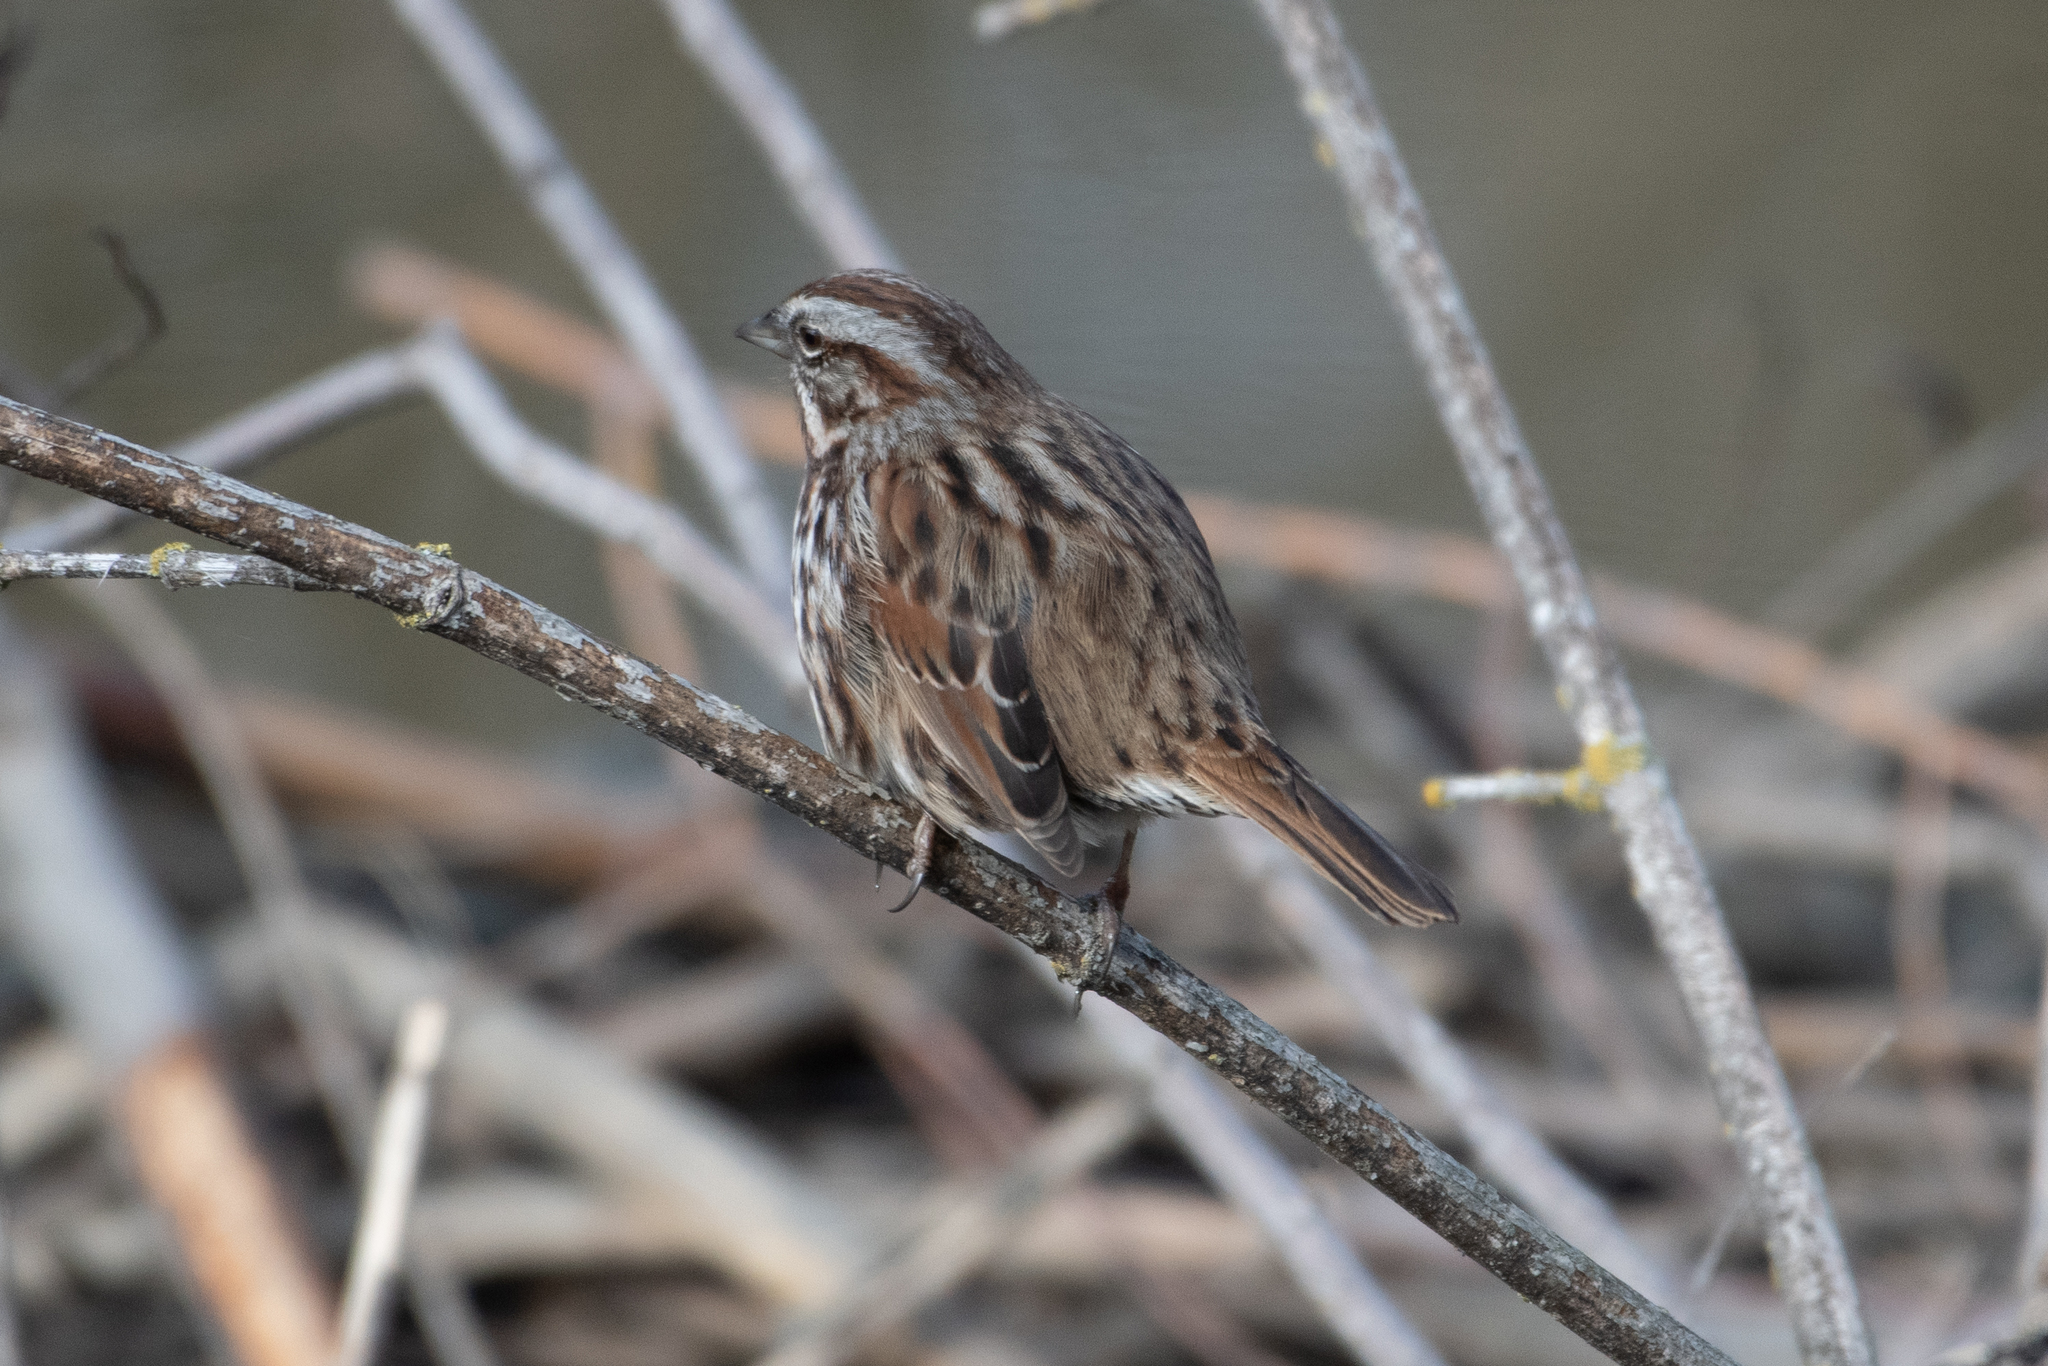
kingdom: Animalia
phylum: Chordata
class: Aves
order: Passeriformes
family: Passerellidae
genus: Melospiza
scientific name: Melospiza melodia
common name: Song sparrow
